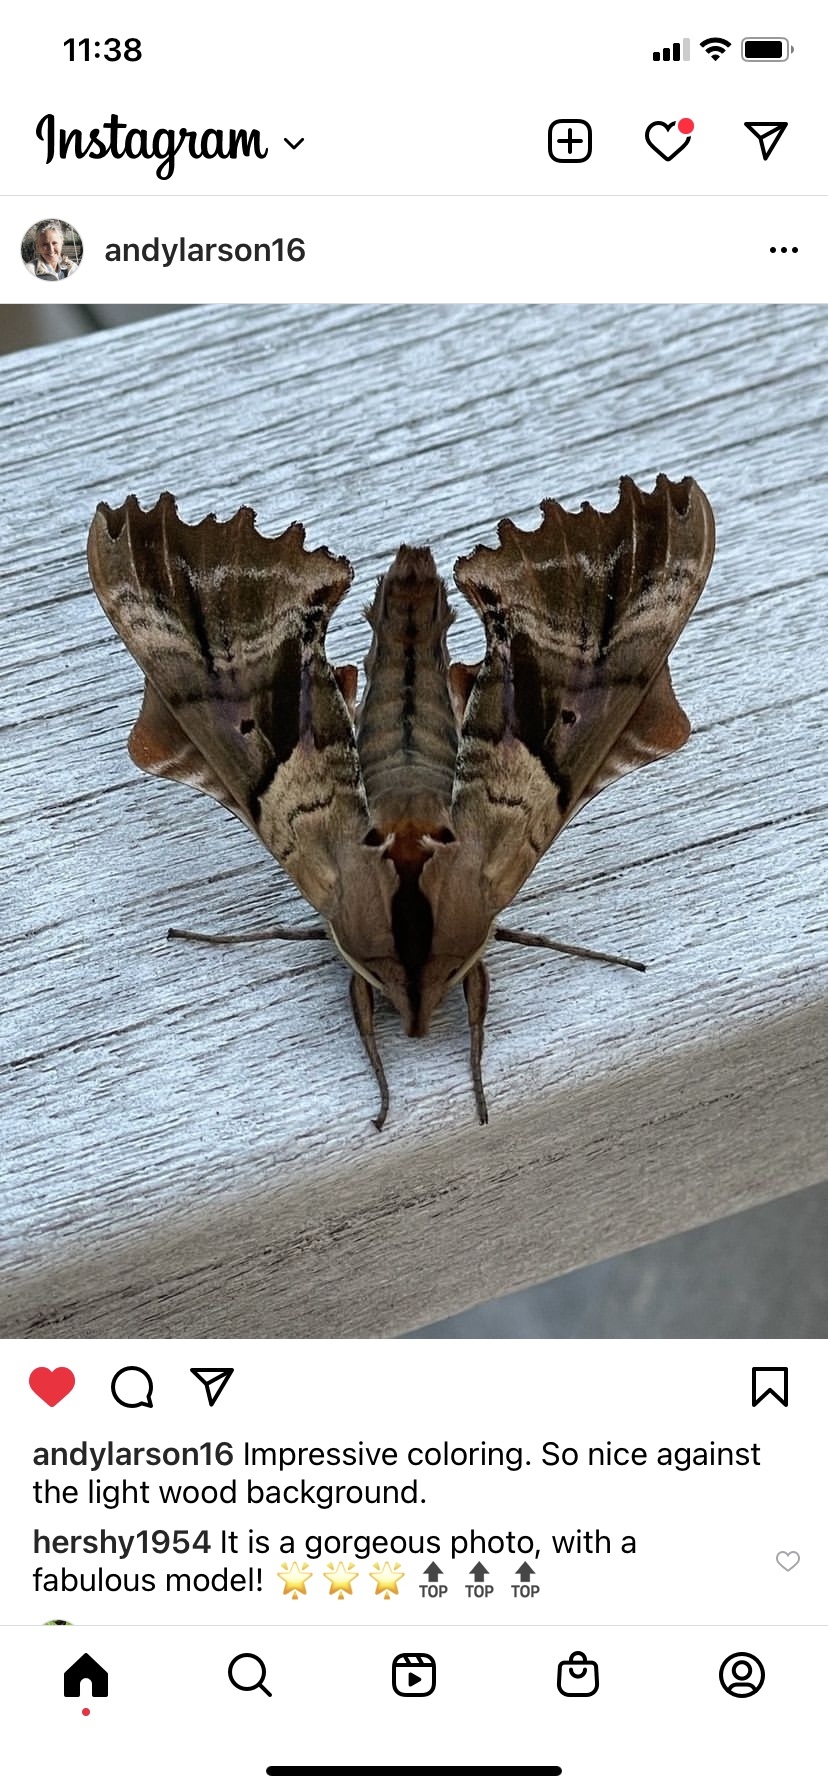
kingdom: Animalia
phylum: Arthropoda
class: Insecta
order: Lepidoptera
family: Sphingidae
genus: Paonias
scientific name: Paonias excaecata
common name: Blind-eyed sphinx
